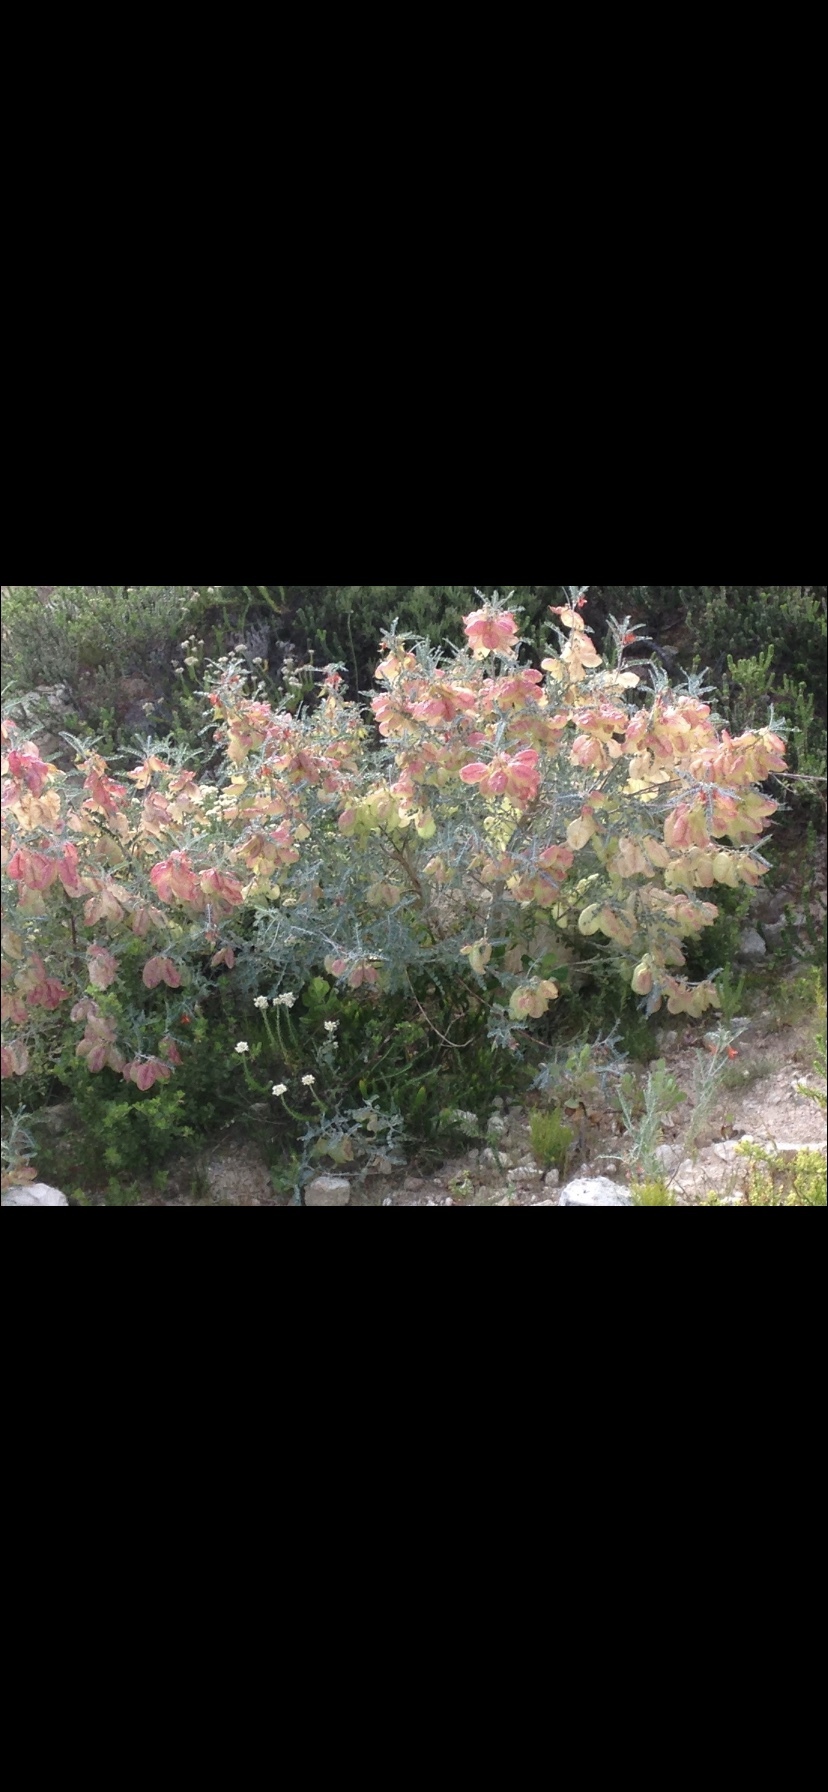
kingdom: Plantae
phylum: Tracheophyta
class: Magnoliopsida
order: Fabales
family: Fabaceae
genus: Lessertia
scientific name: Lessertia frutescens
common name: Balloon-pea
